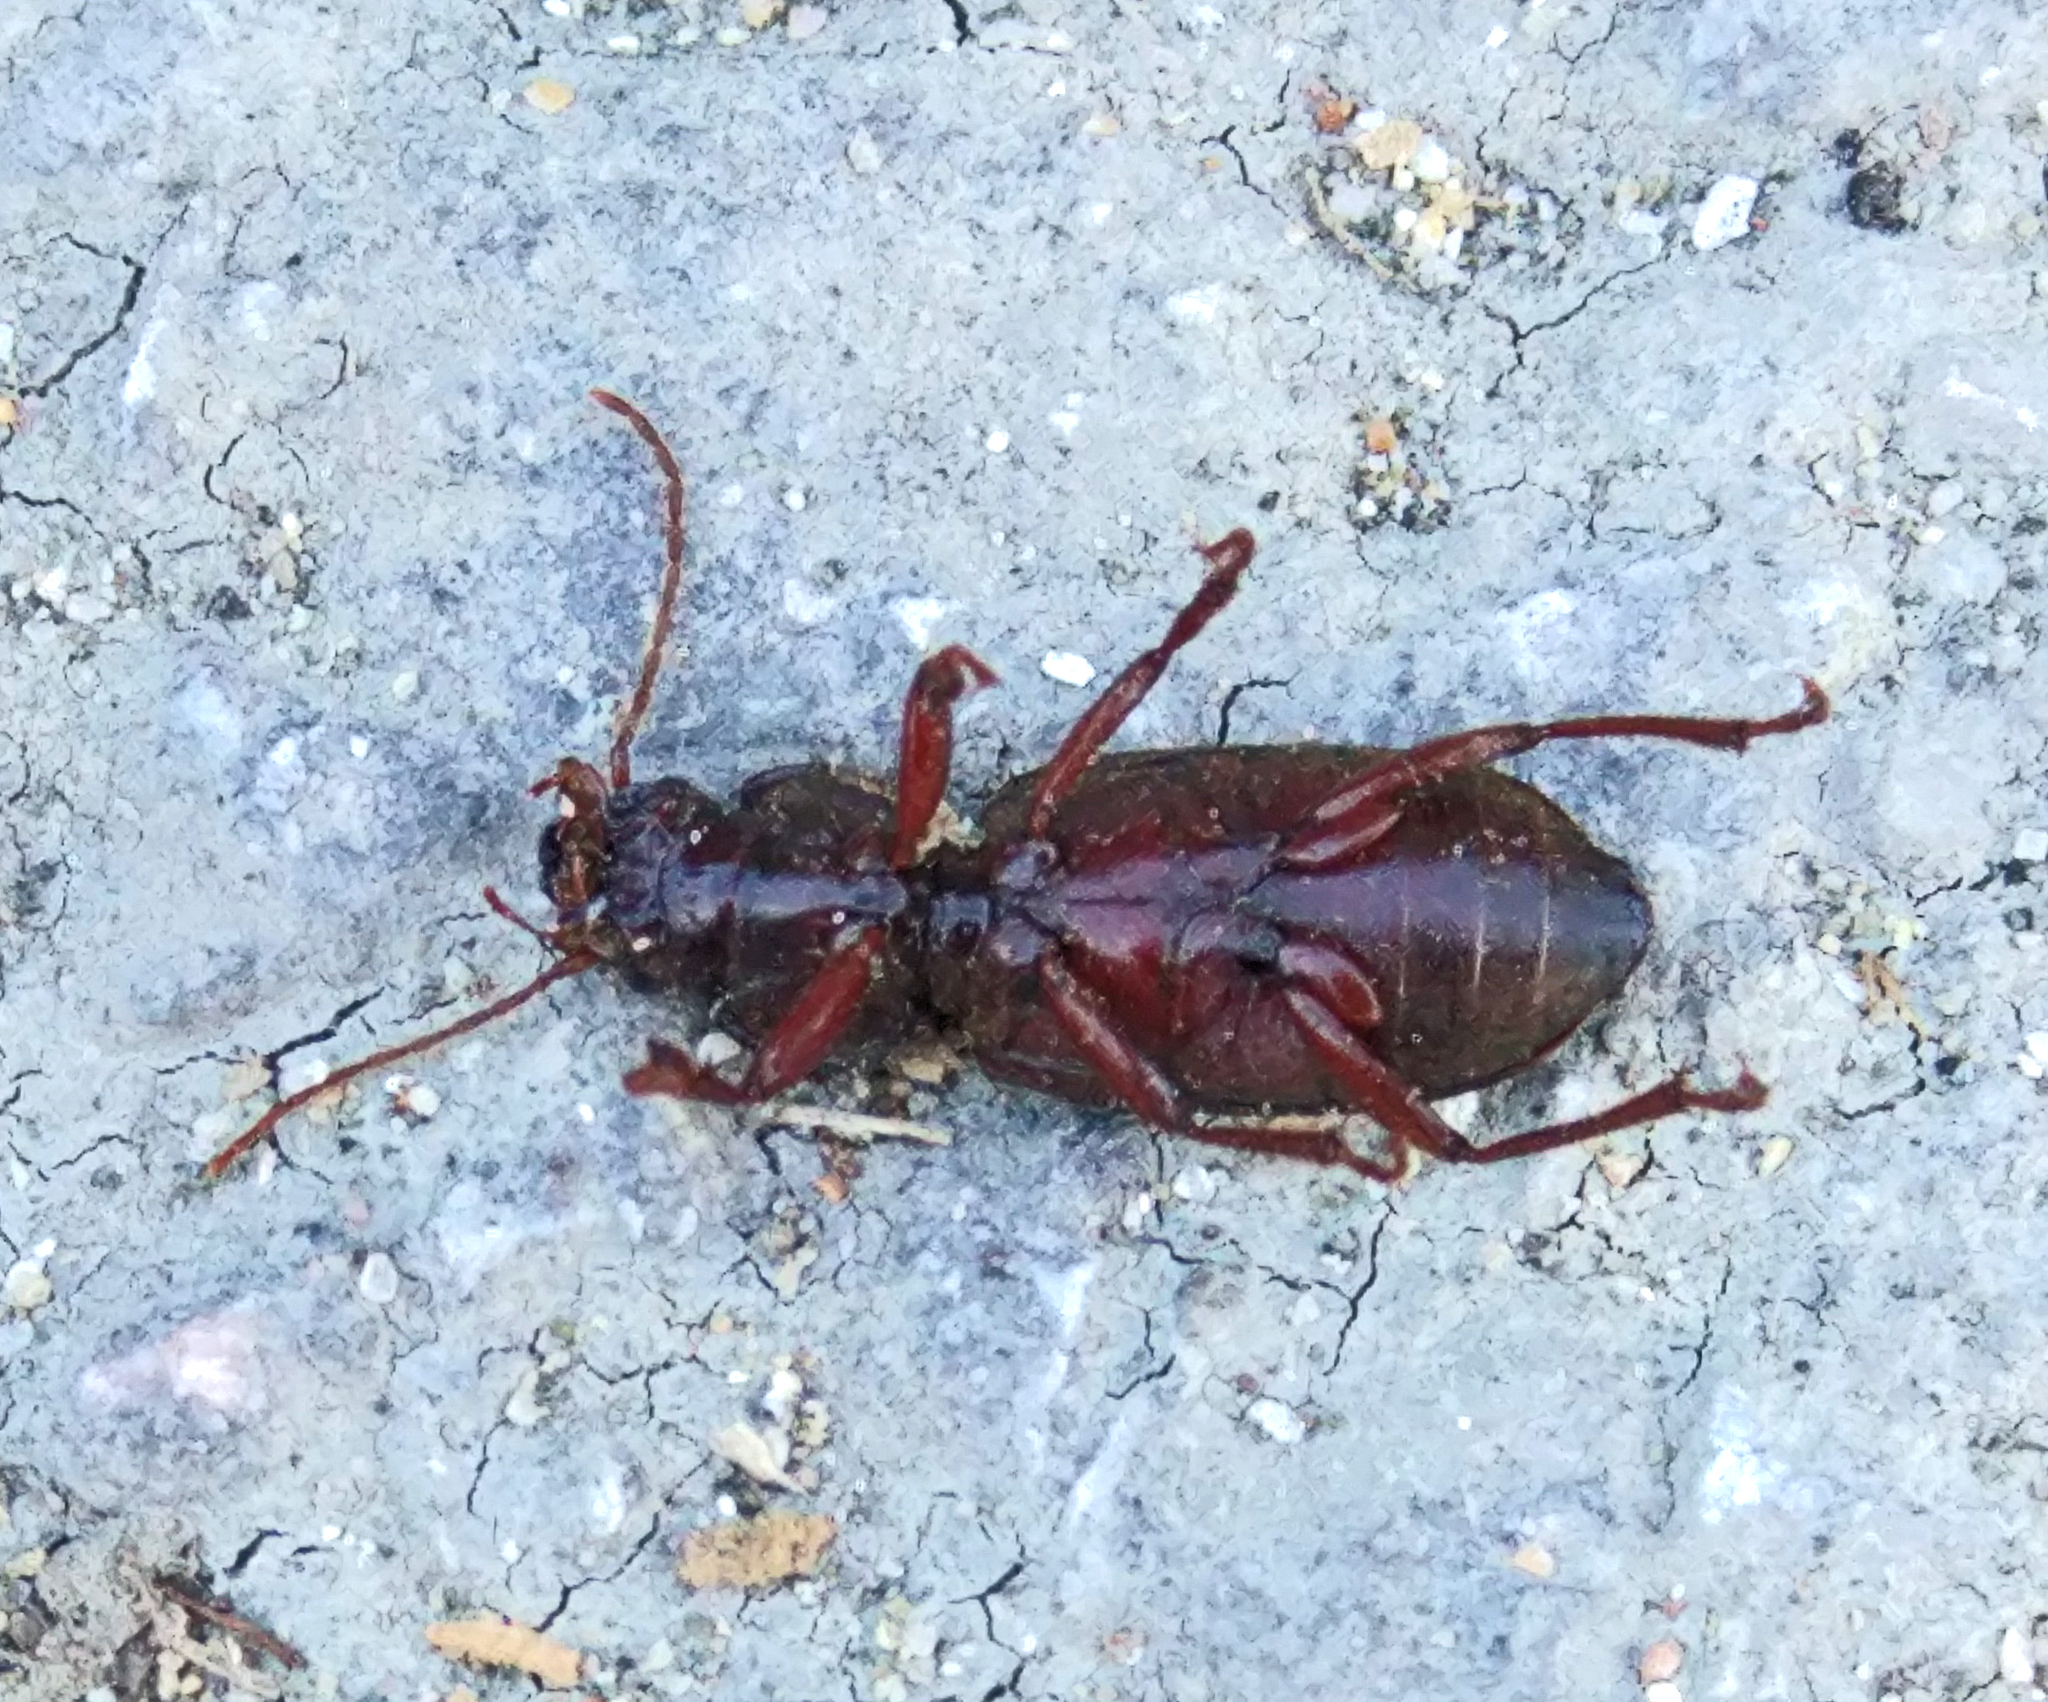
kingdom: Animalia
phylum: Arthropoda
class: Insecta
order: Coleoptera
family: Carabidae
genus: Scybalicus
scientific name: Scybalicus oblongiusculus
